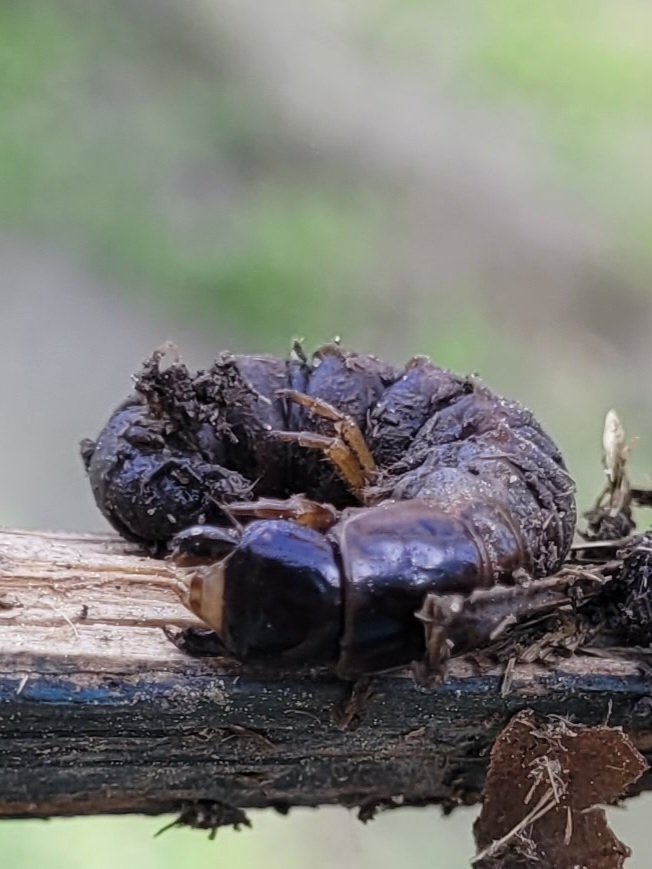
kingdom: Animalia
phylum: Arthropoda
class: Insecta
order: Megaloptera
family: Corydalidae
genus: Chauliodes
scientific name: Chauliodes rastricornis
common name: Spring fishfly
